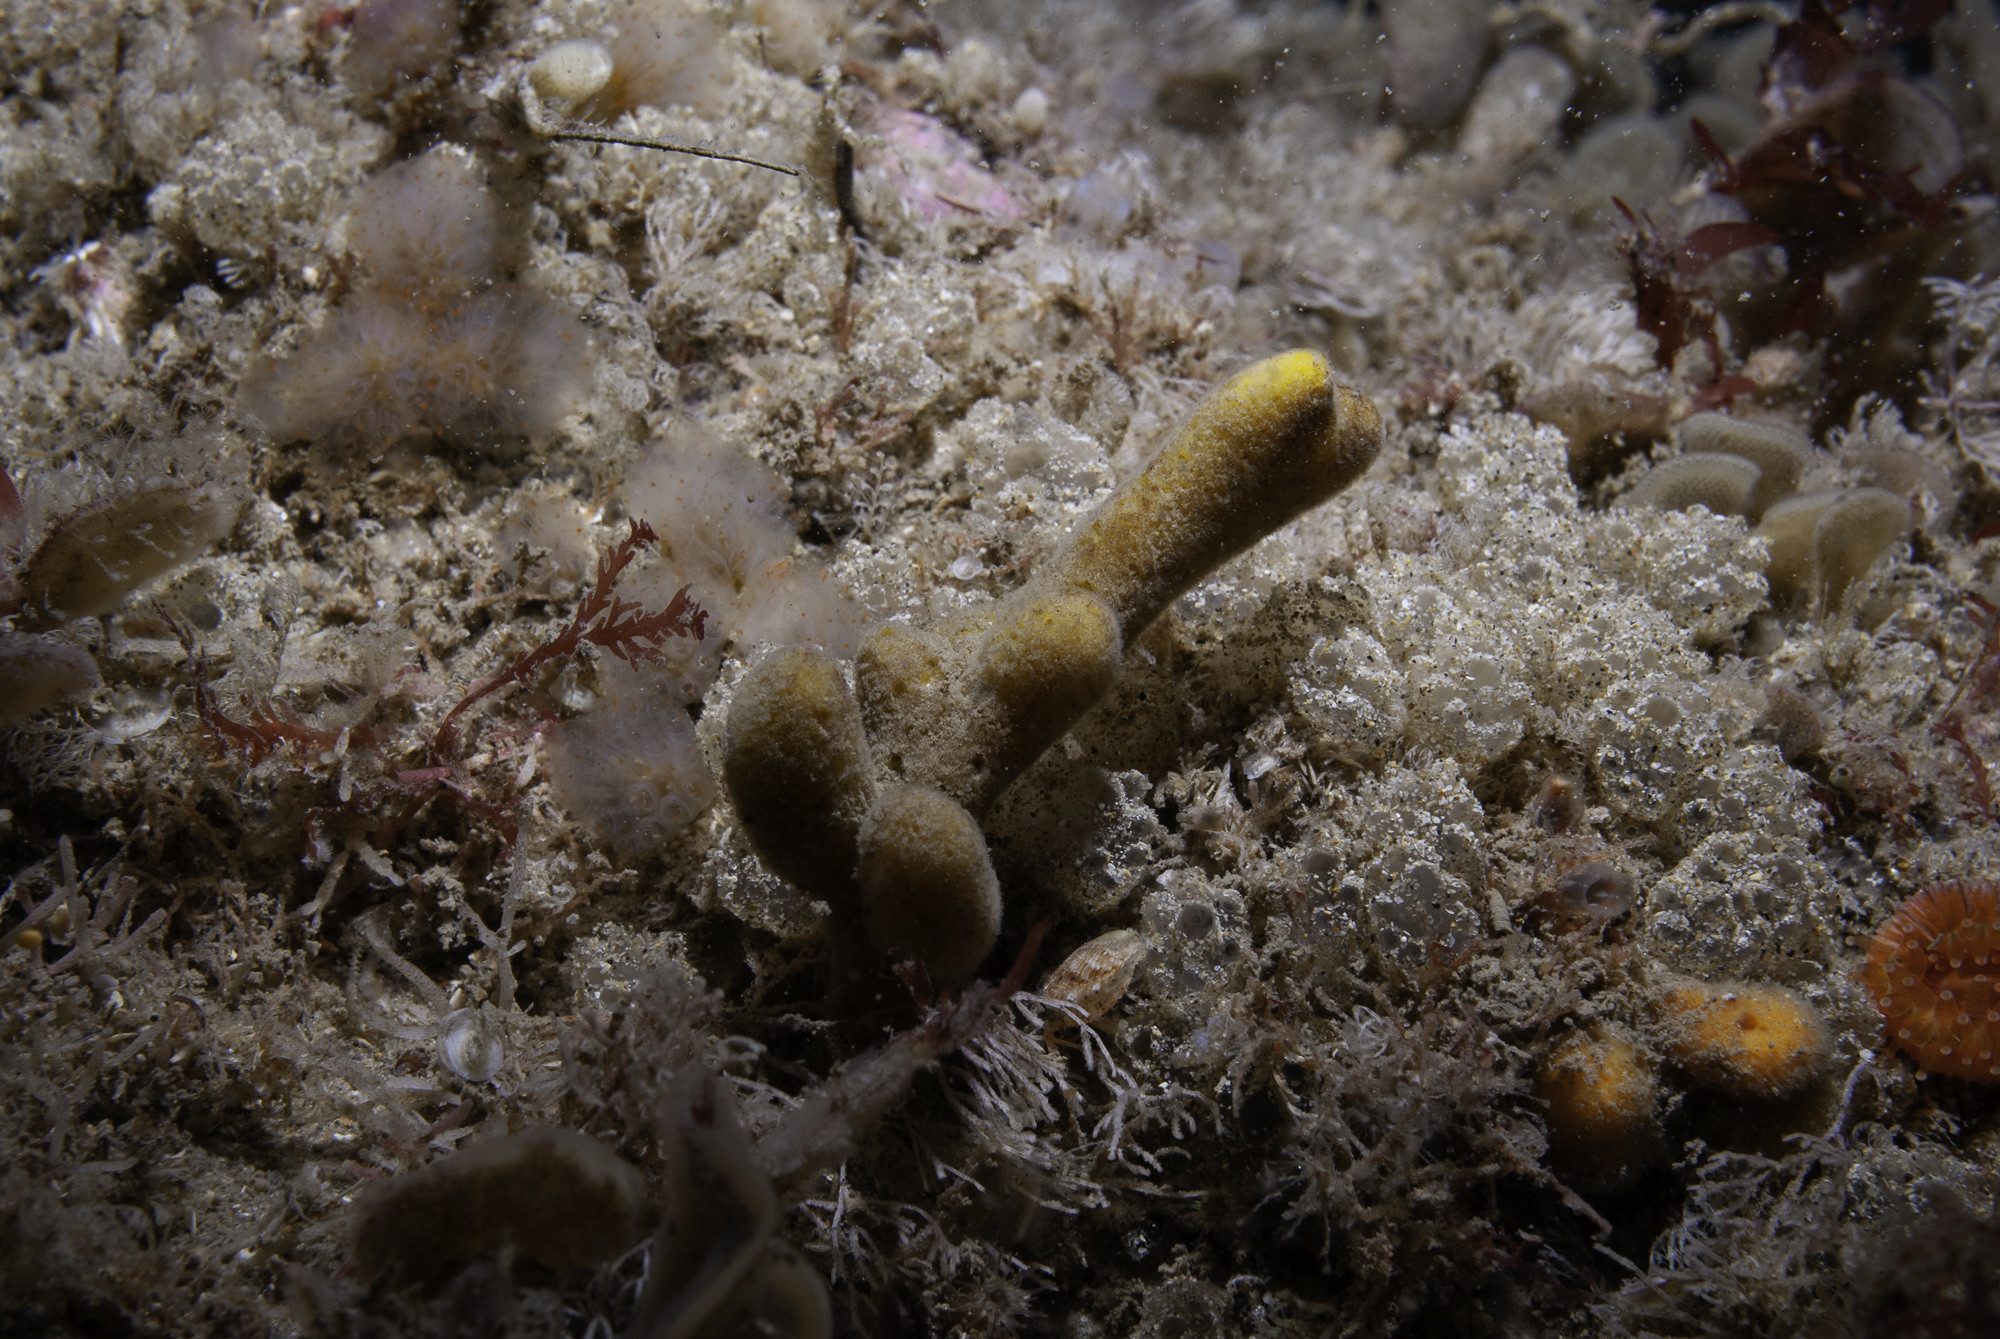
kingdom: Animalia
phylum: Porifera
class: Demospongiae
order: Axinellida
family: Raspailiidae
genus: Raspailia
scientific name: Raspailia hispida
